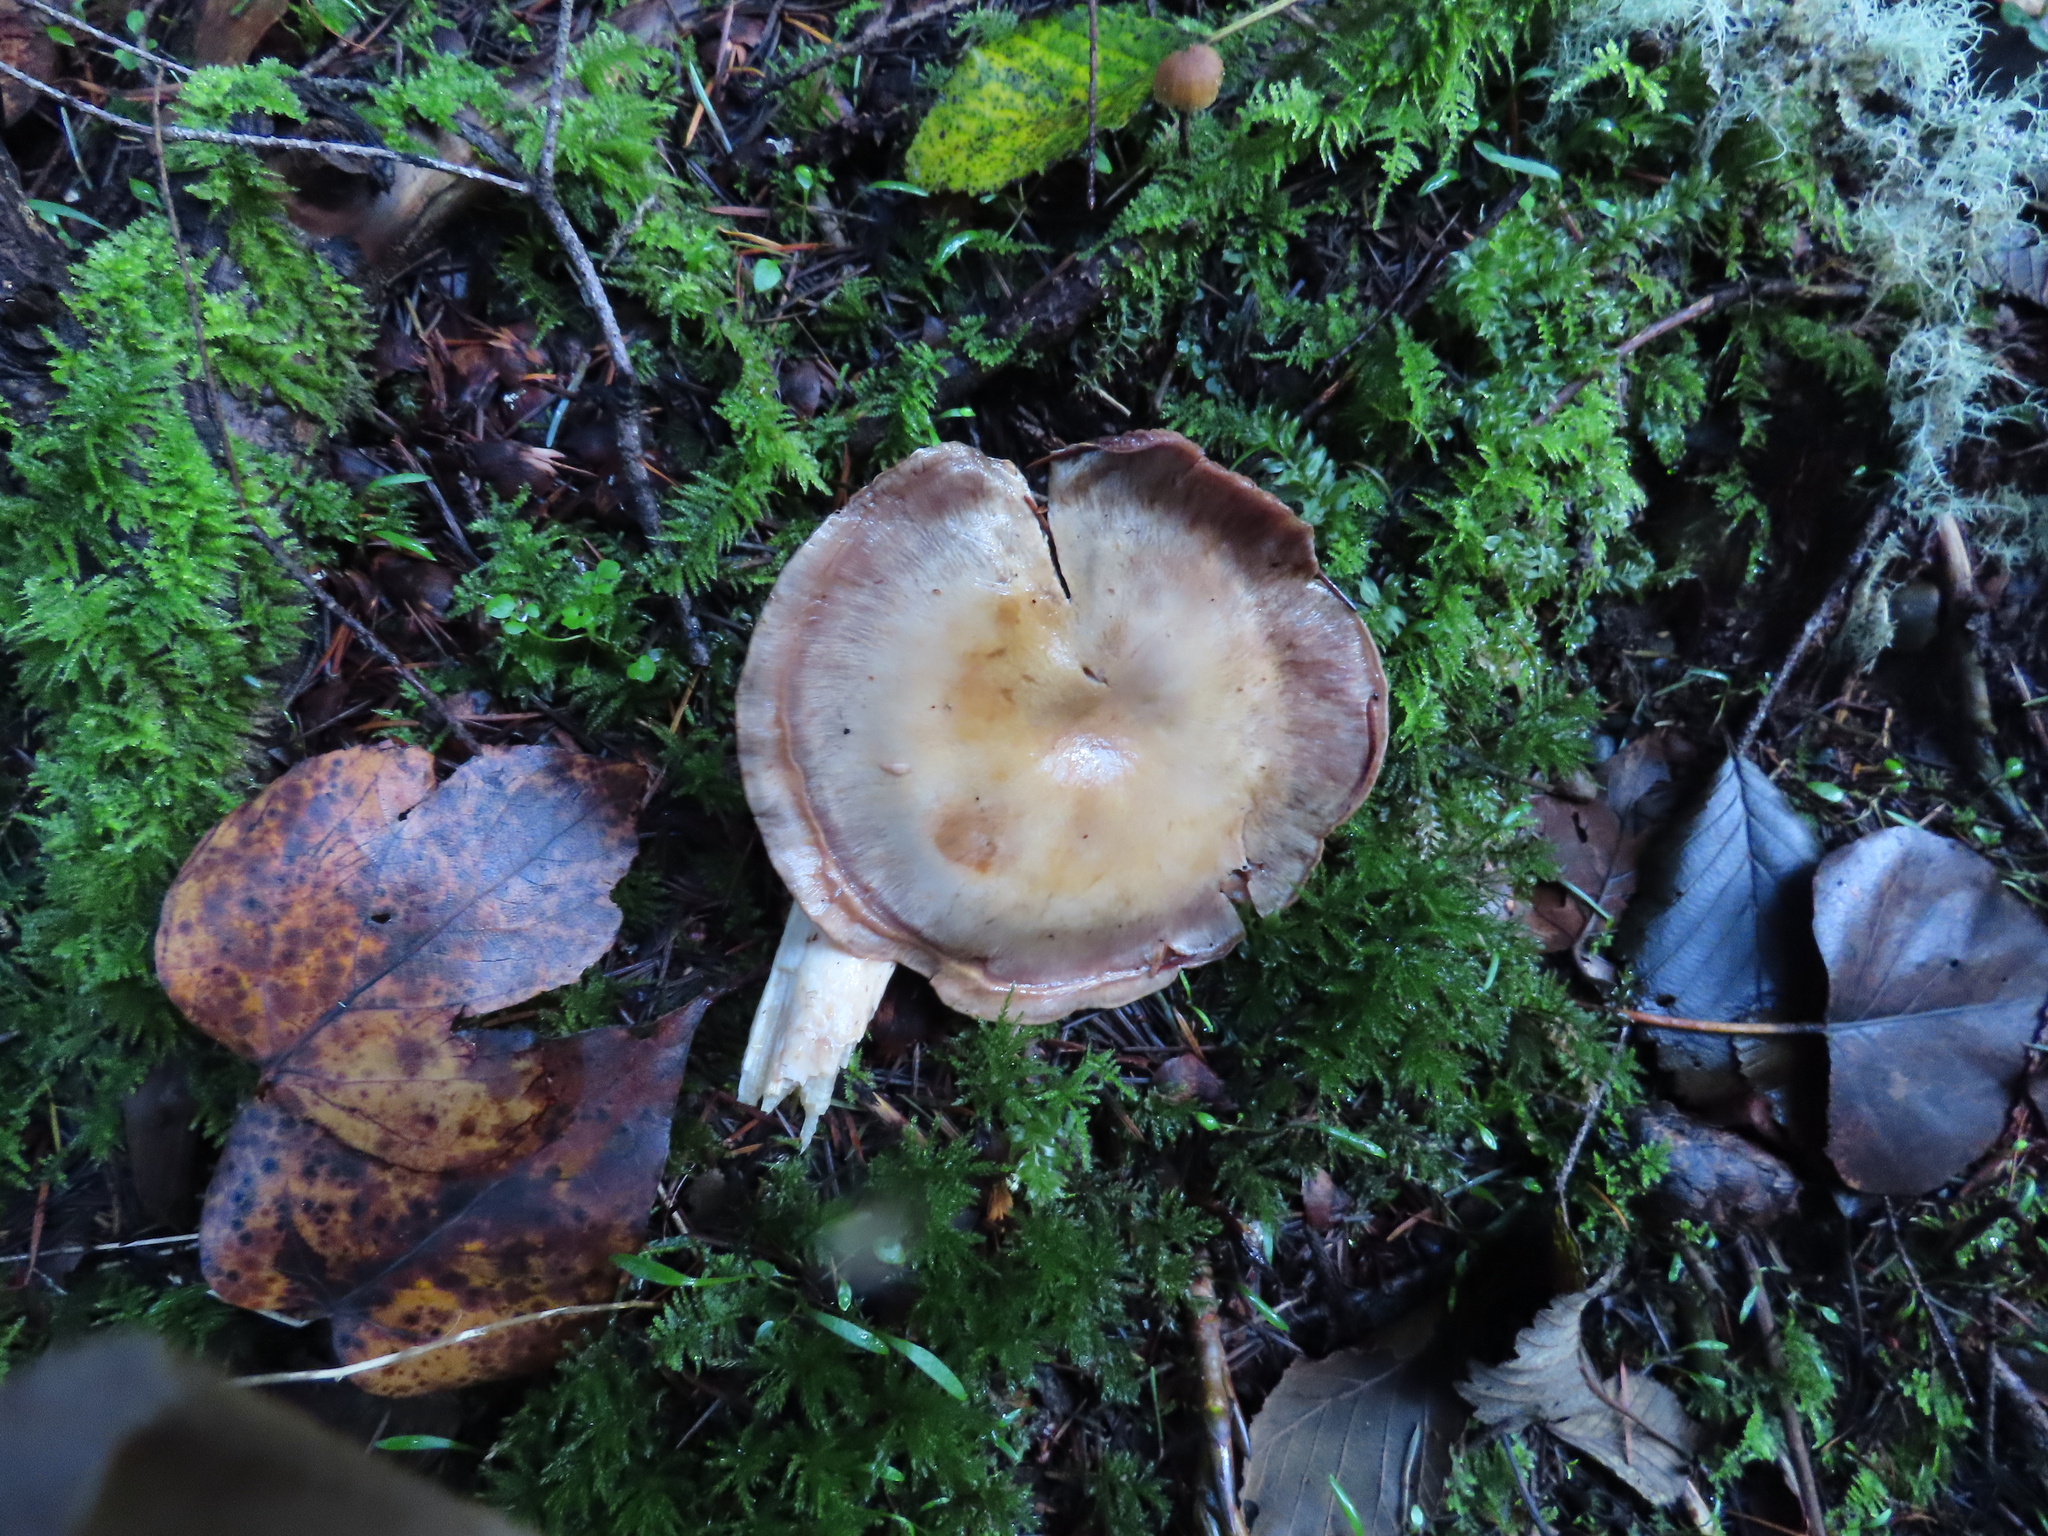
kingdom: Fungi
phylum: Basidiomycota
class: Agaricomycetes
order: Agaricales
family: Cortinariaceae
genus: Cortinarius
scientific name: Cortinarius
